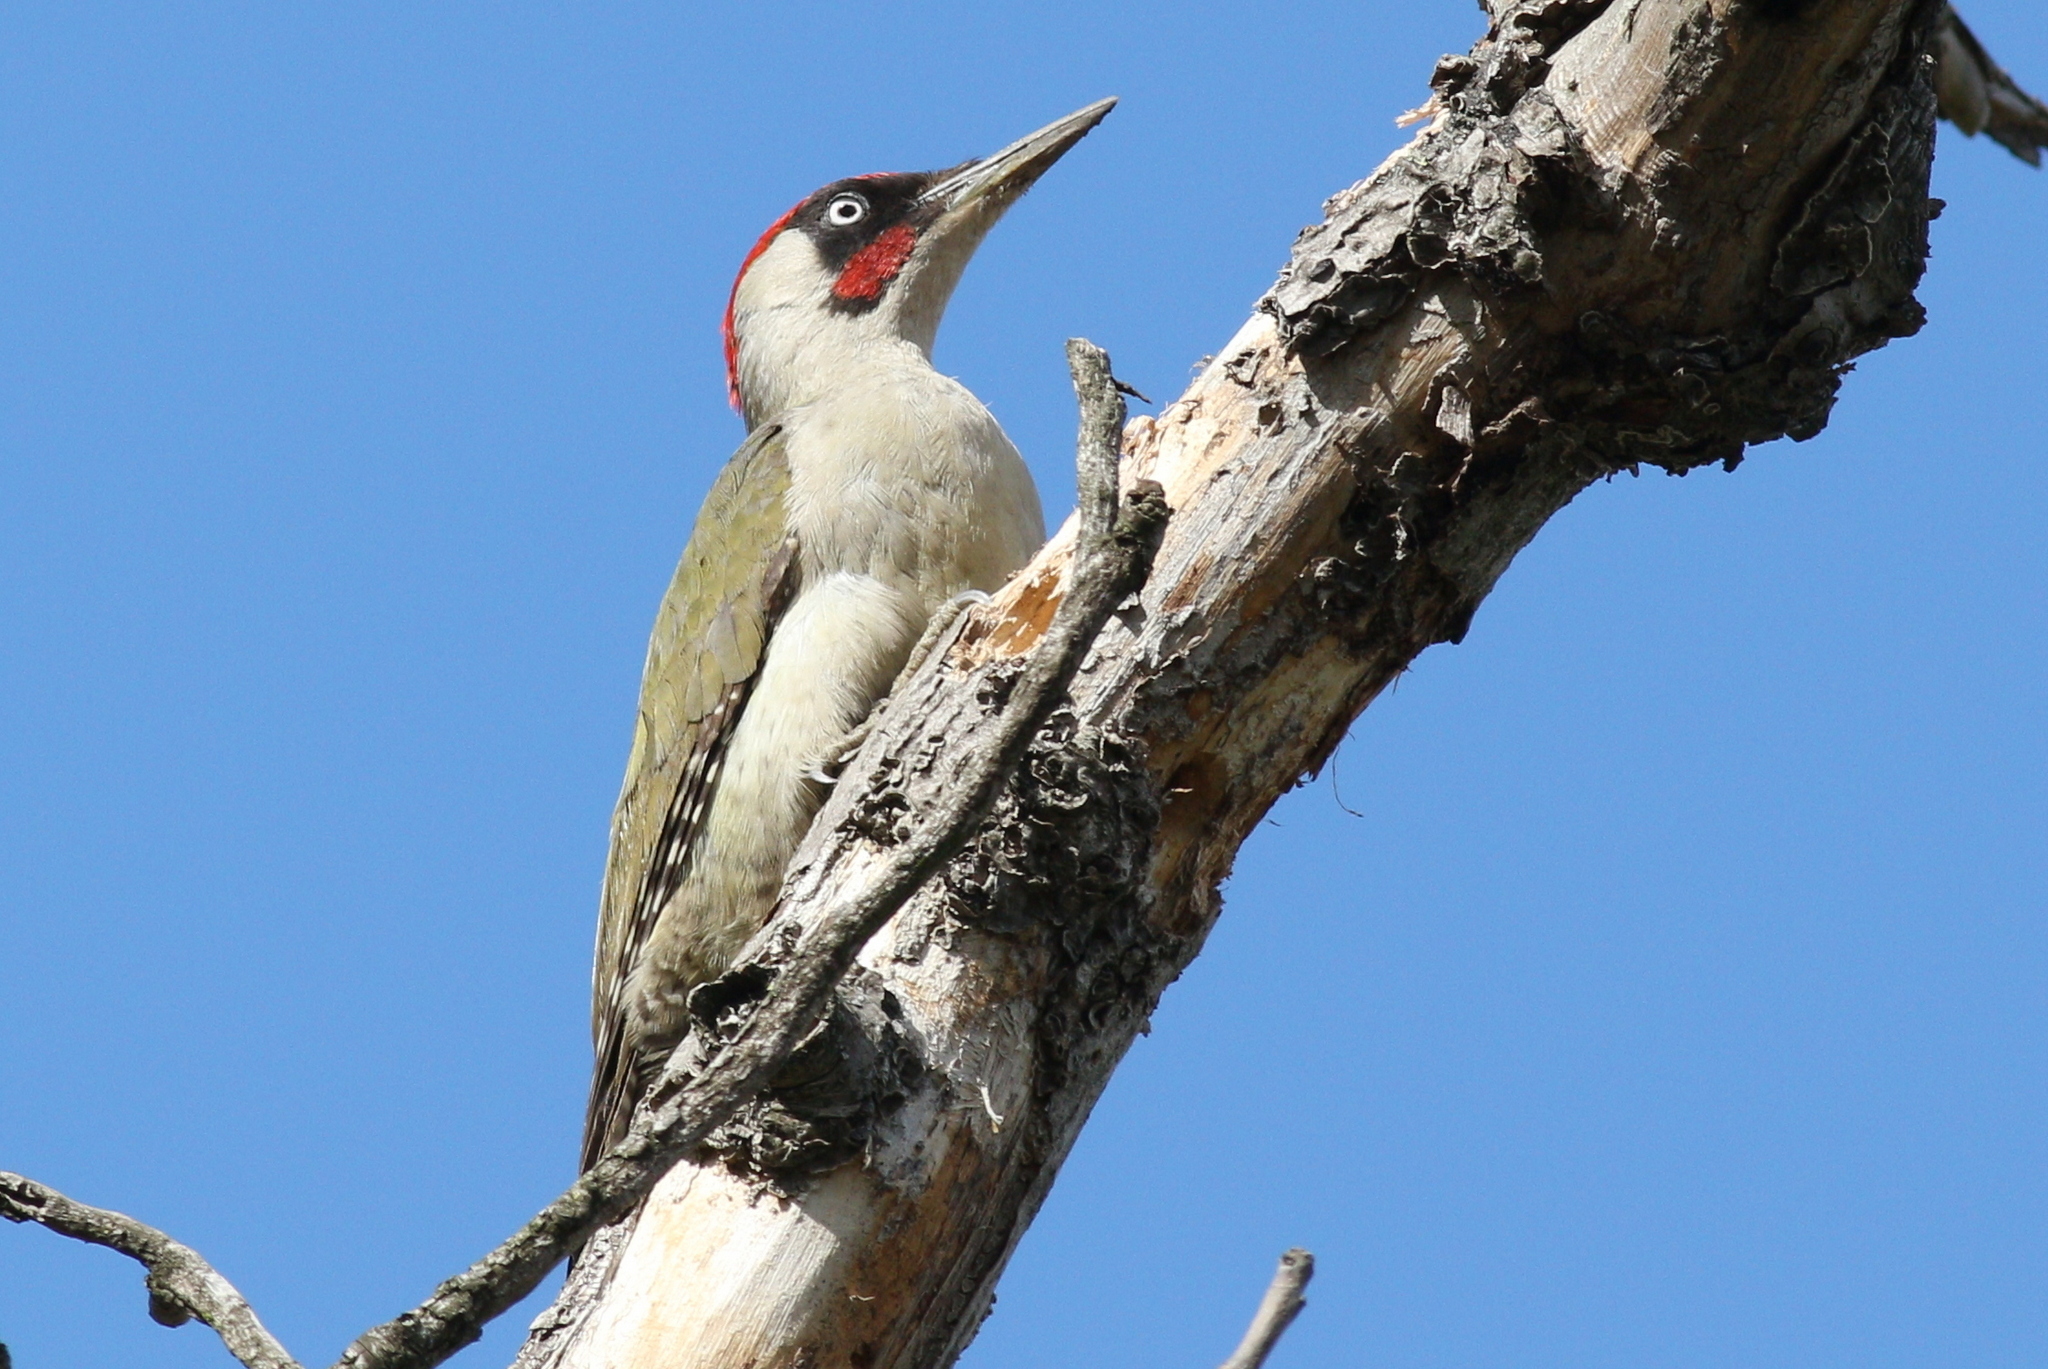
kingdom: Animalia
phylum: Chordata
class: Aves
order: Piciformes
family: Picidae
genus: Picus
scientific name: Picus viridis
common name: European green woodpecker
